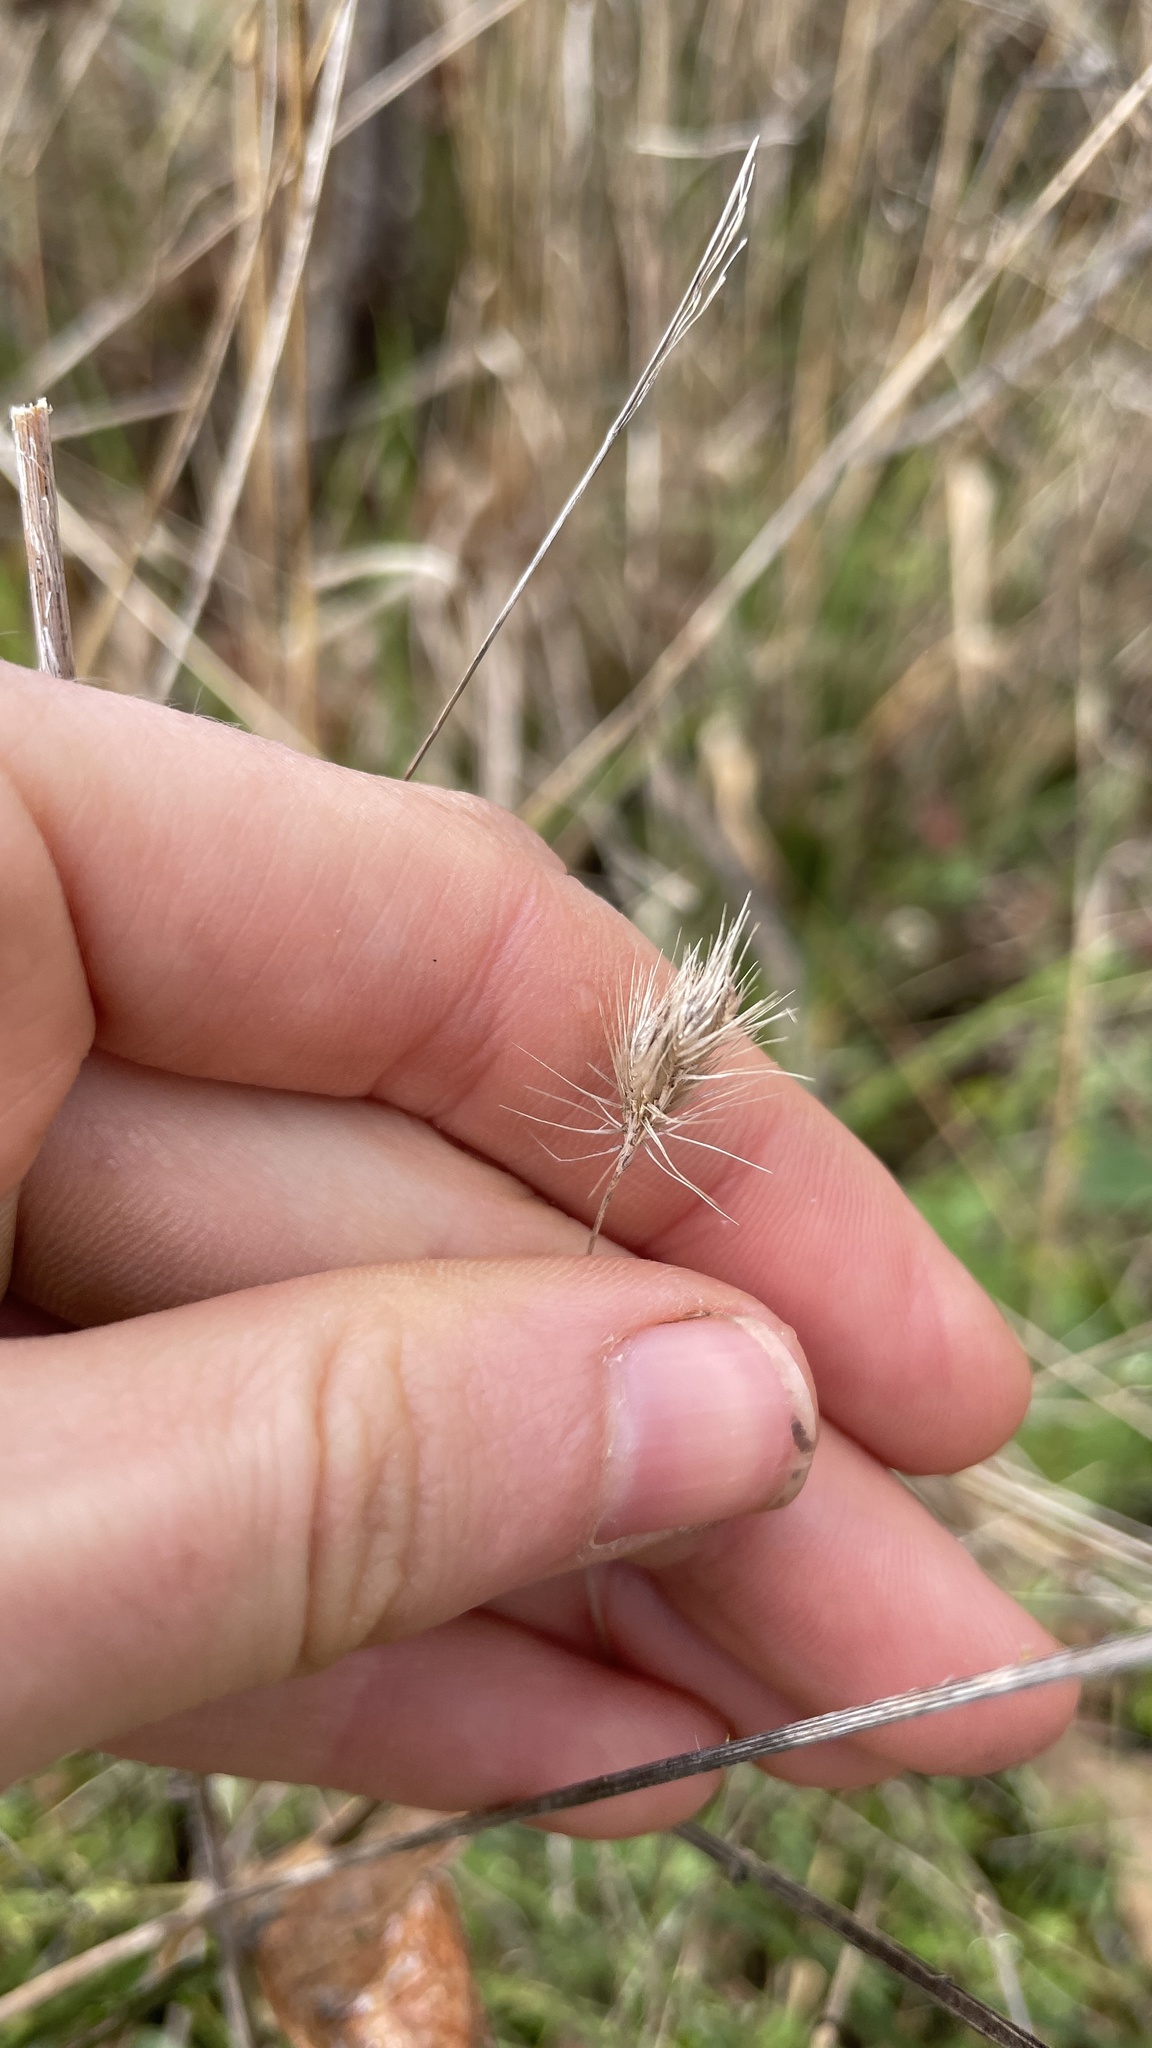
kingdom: Plantae
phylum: Tracheophyta
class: Liliopsida
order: Poales
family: Poaceae
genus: Cynosurus
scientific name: Cynosurus echinatus
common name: Rough dog's-tail
